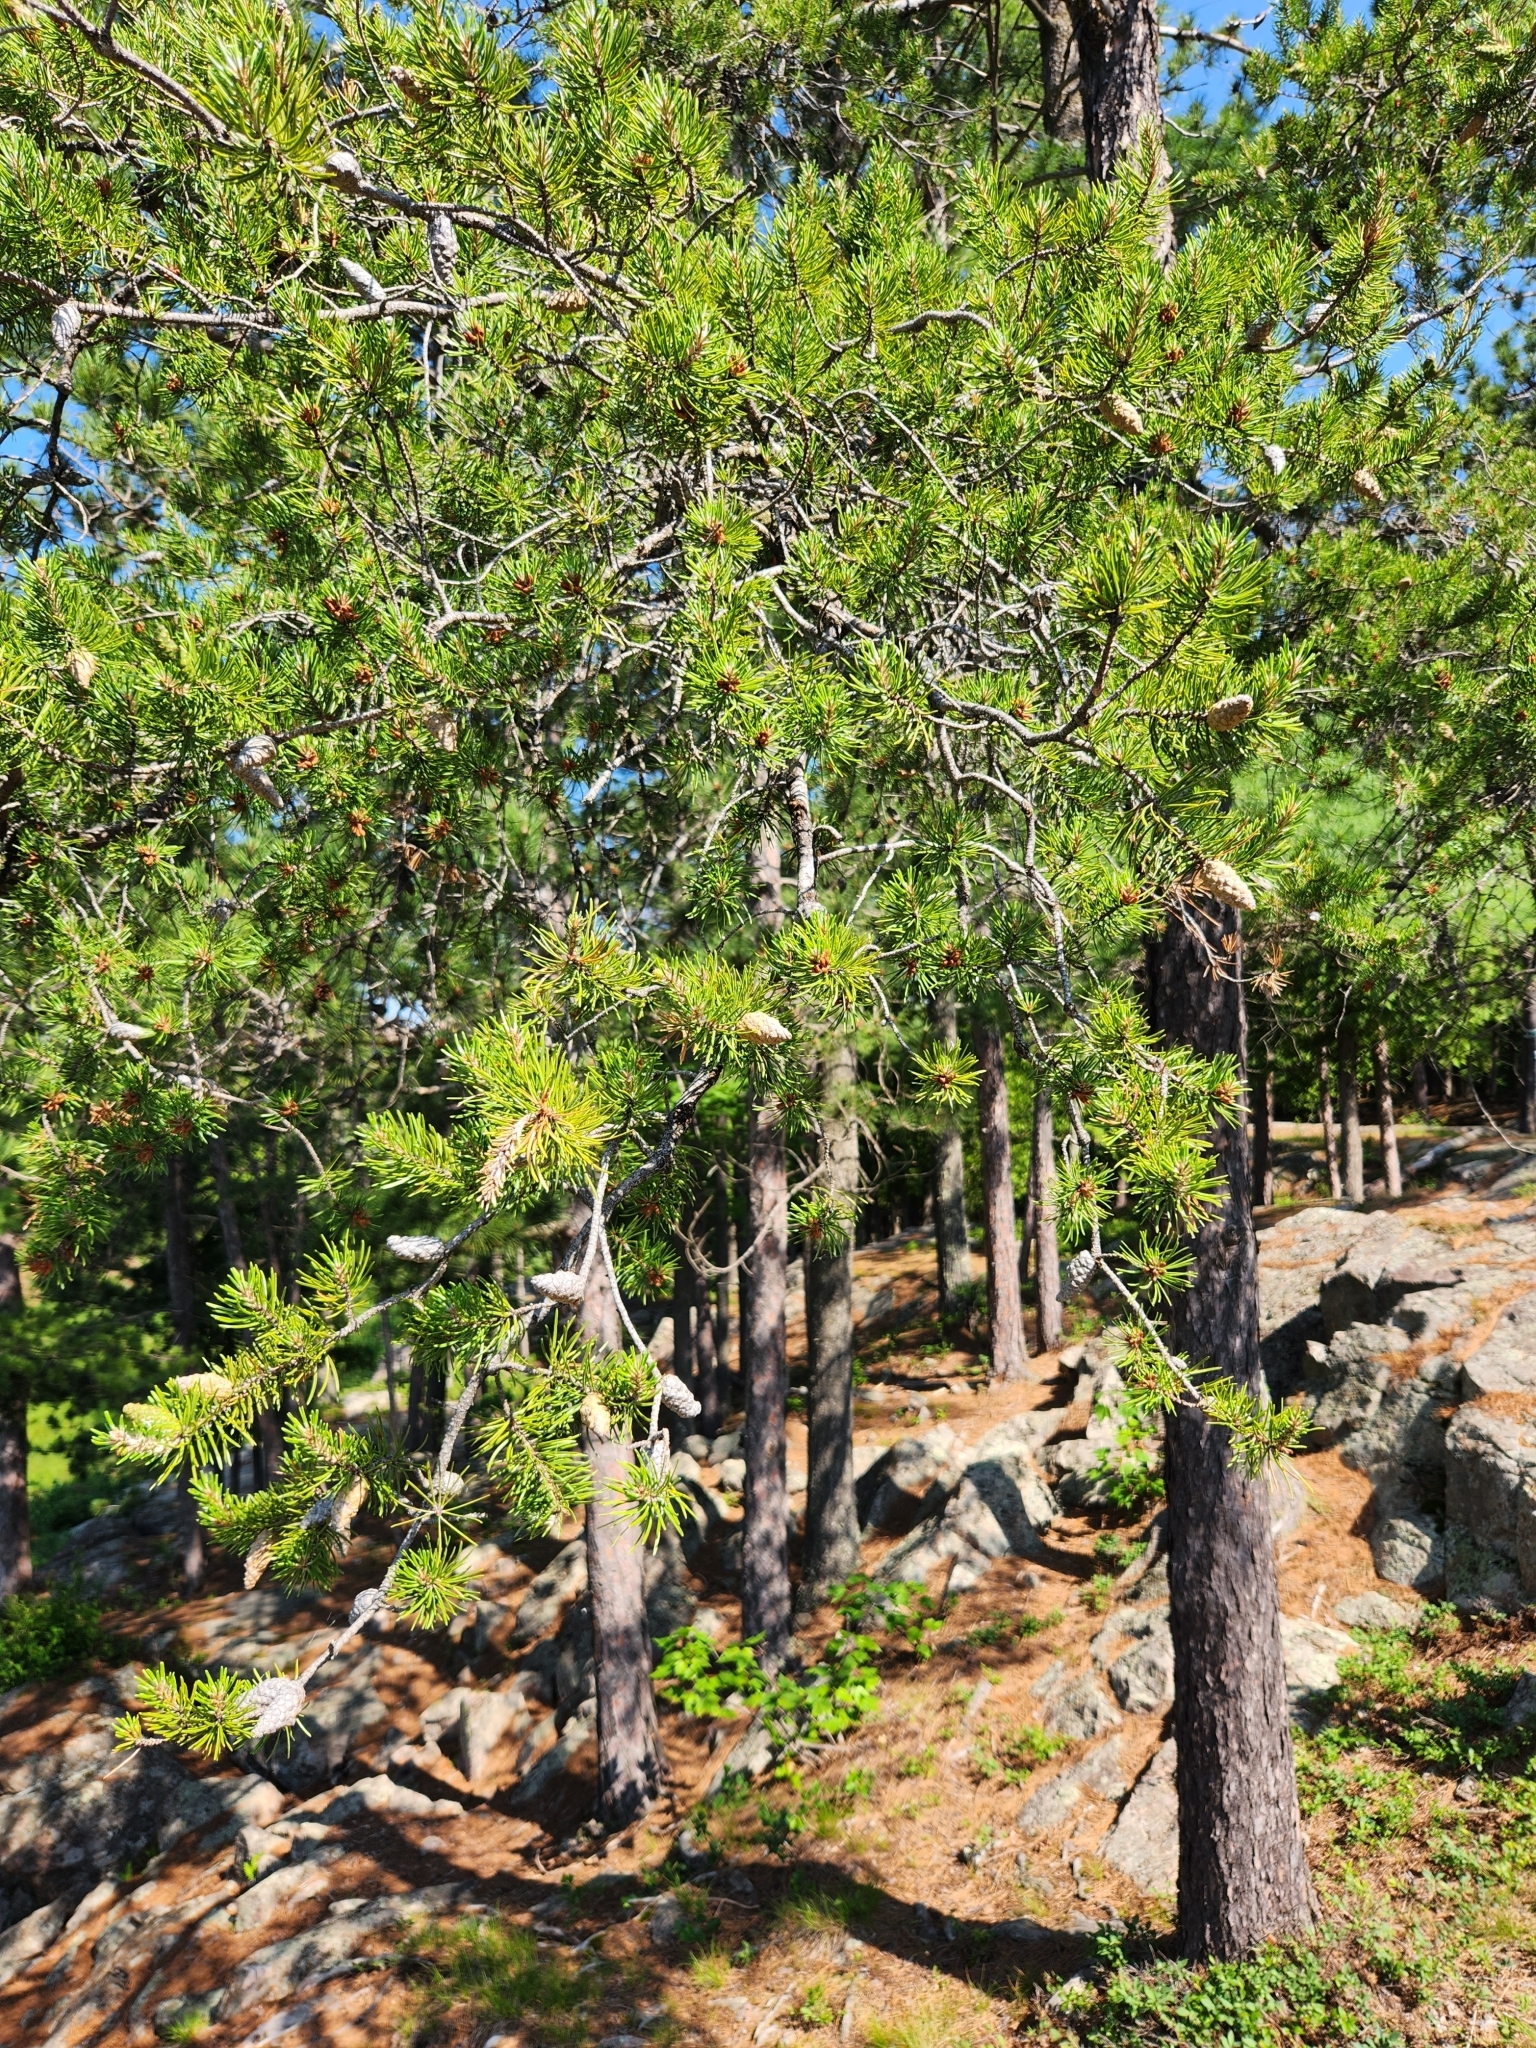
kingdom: Plantae
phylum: Tracheophyta
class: Pinopsida
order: Pinales
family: Pinaceae
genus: Pinus
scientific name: Pinus banksiana
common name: Jack pine
